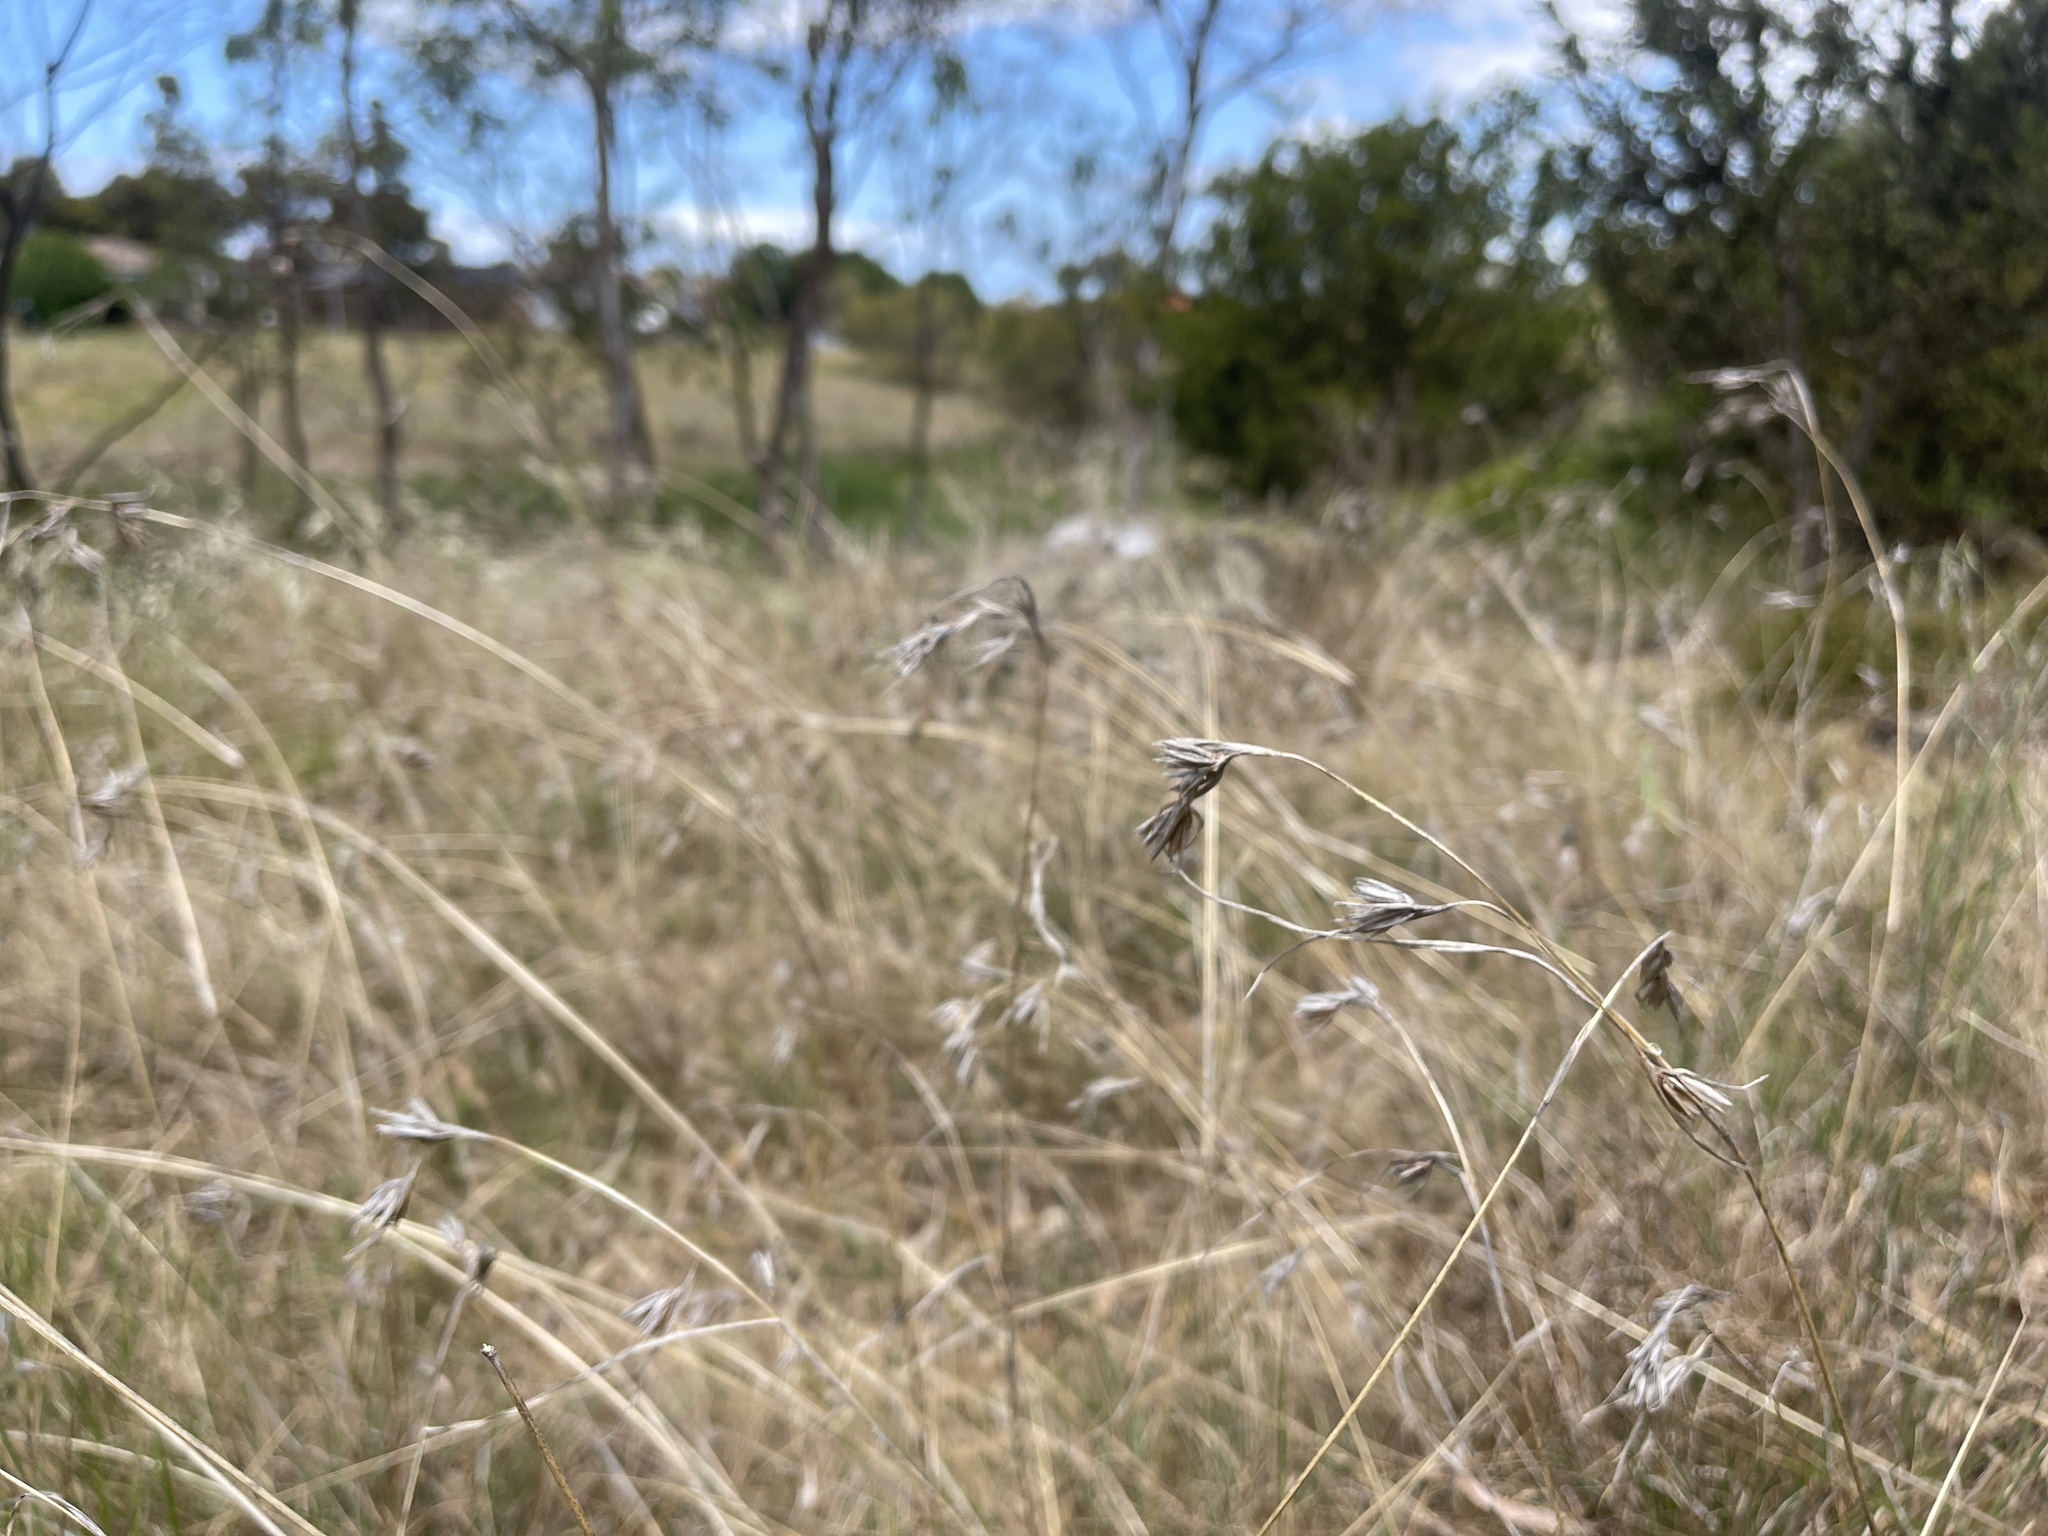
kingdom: Plantae
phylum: Tracheophyta
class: Liliopsida
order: Poales
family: Poaceae
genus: Themeda
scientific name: Themeda triandra
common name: Kangaroo grass
